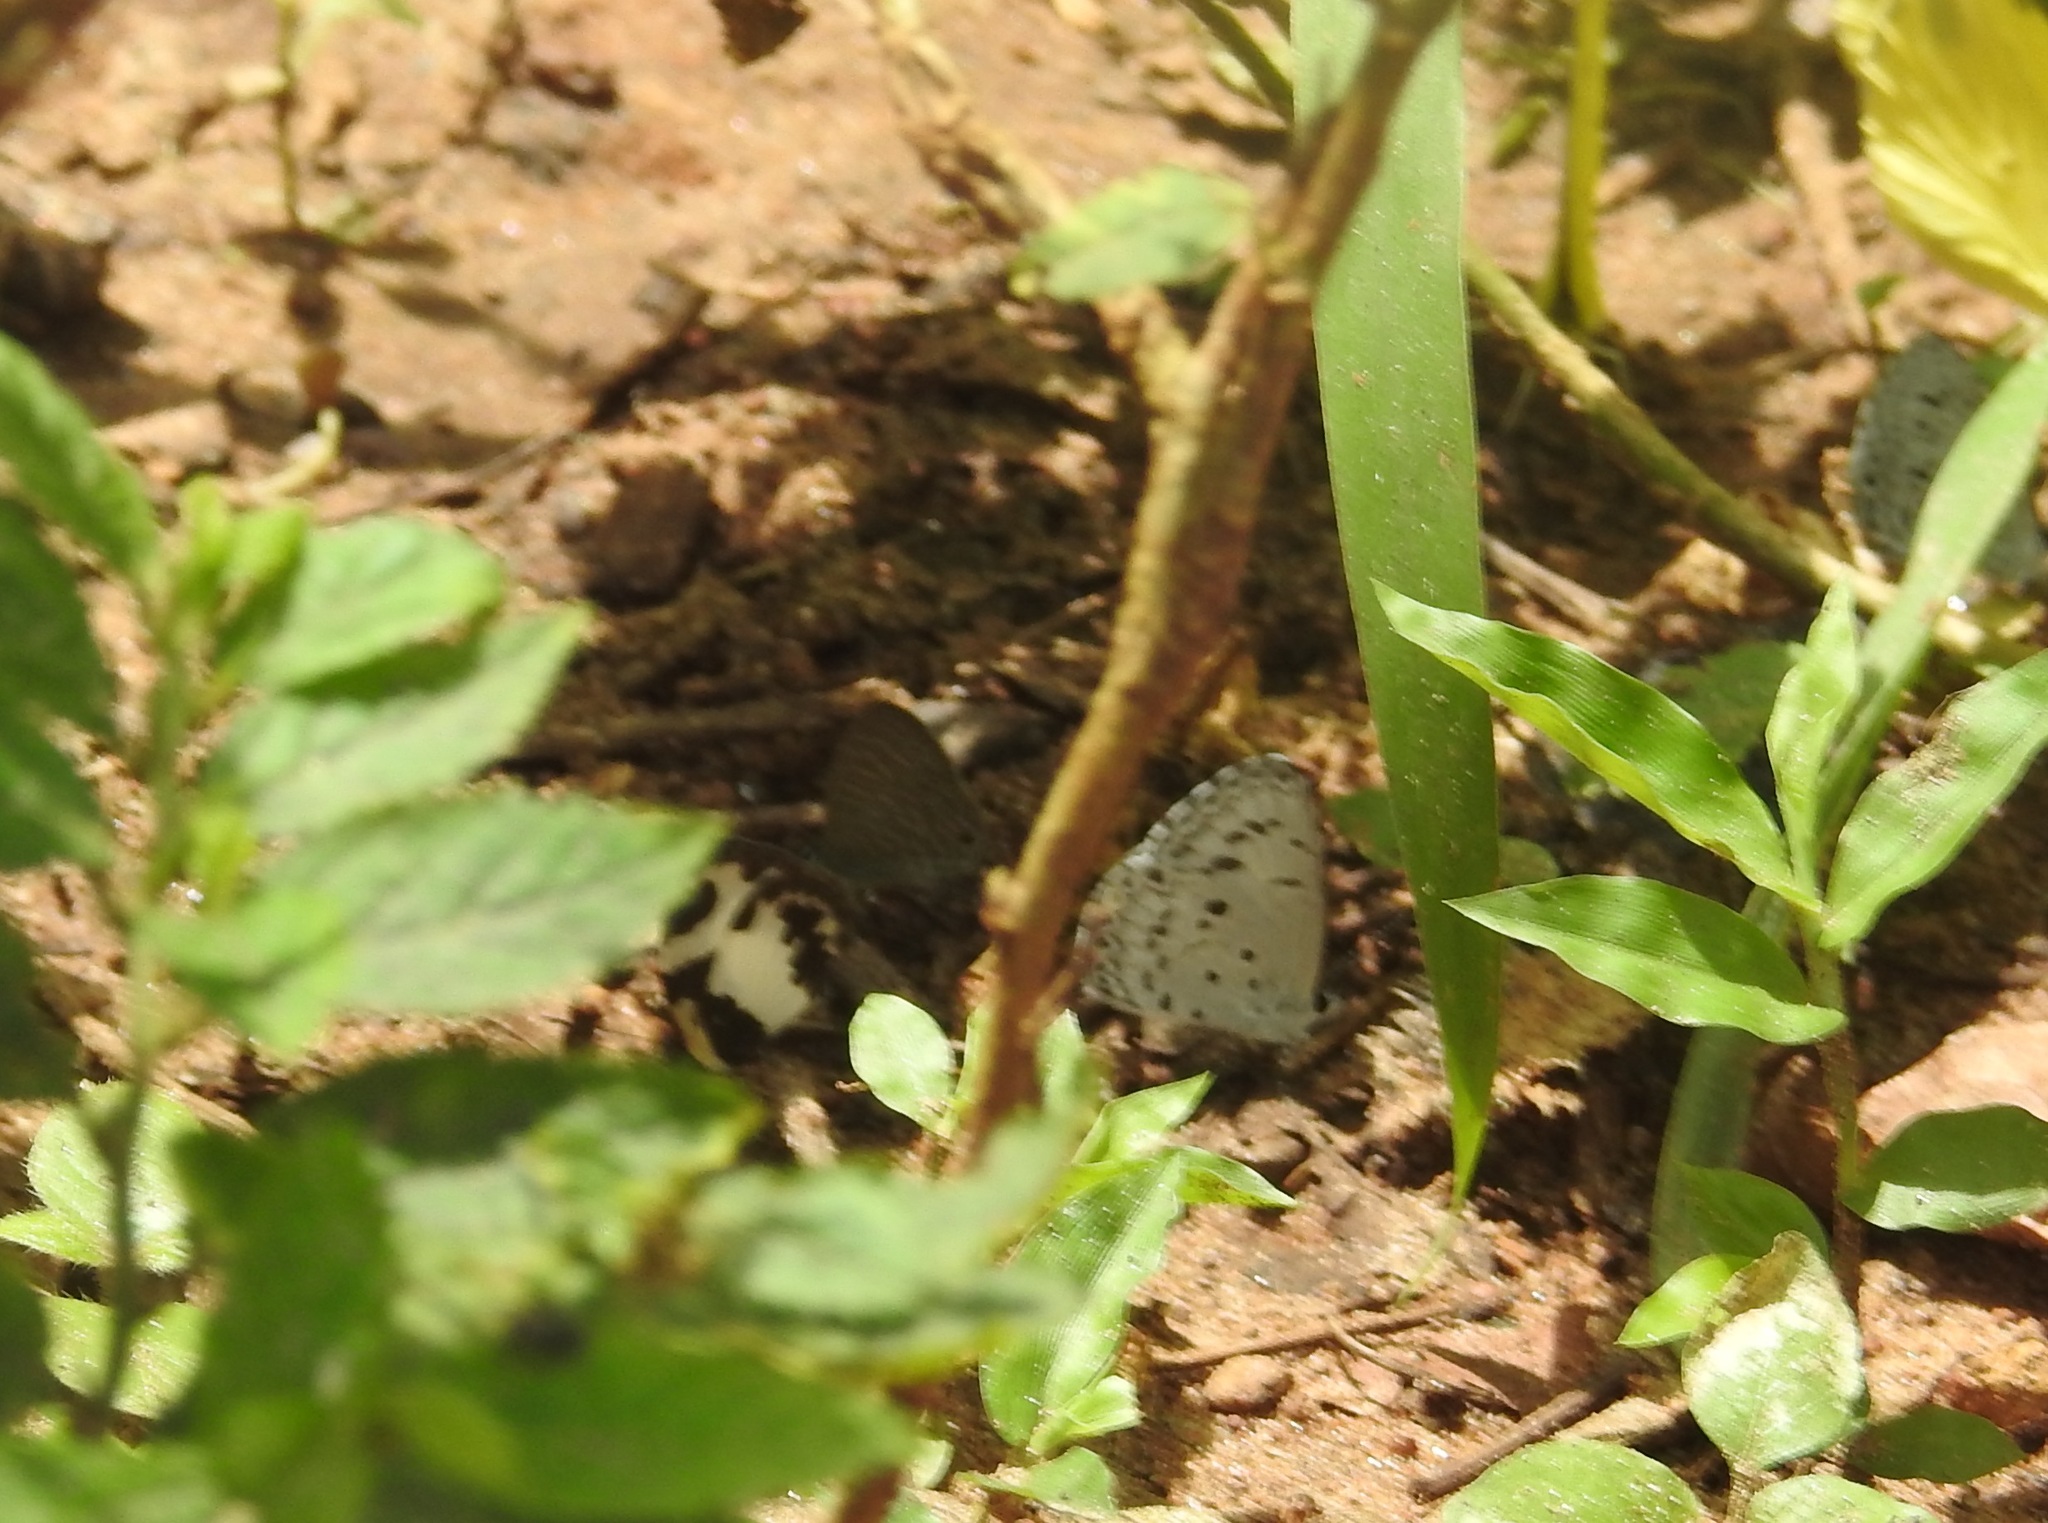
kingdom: Animalia
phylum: Arthropoda
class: Insecta
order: Lepidoptera
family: Lycaenidae
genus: Acytolepis
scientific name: Acytolepis puspa
